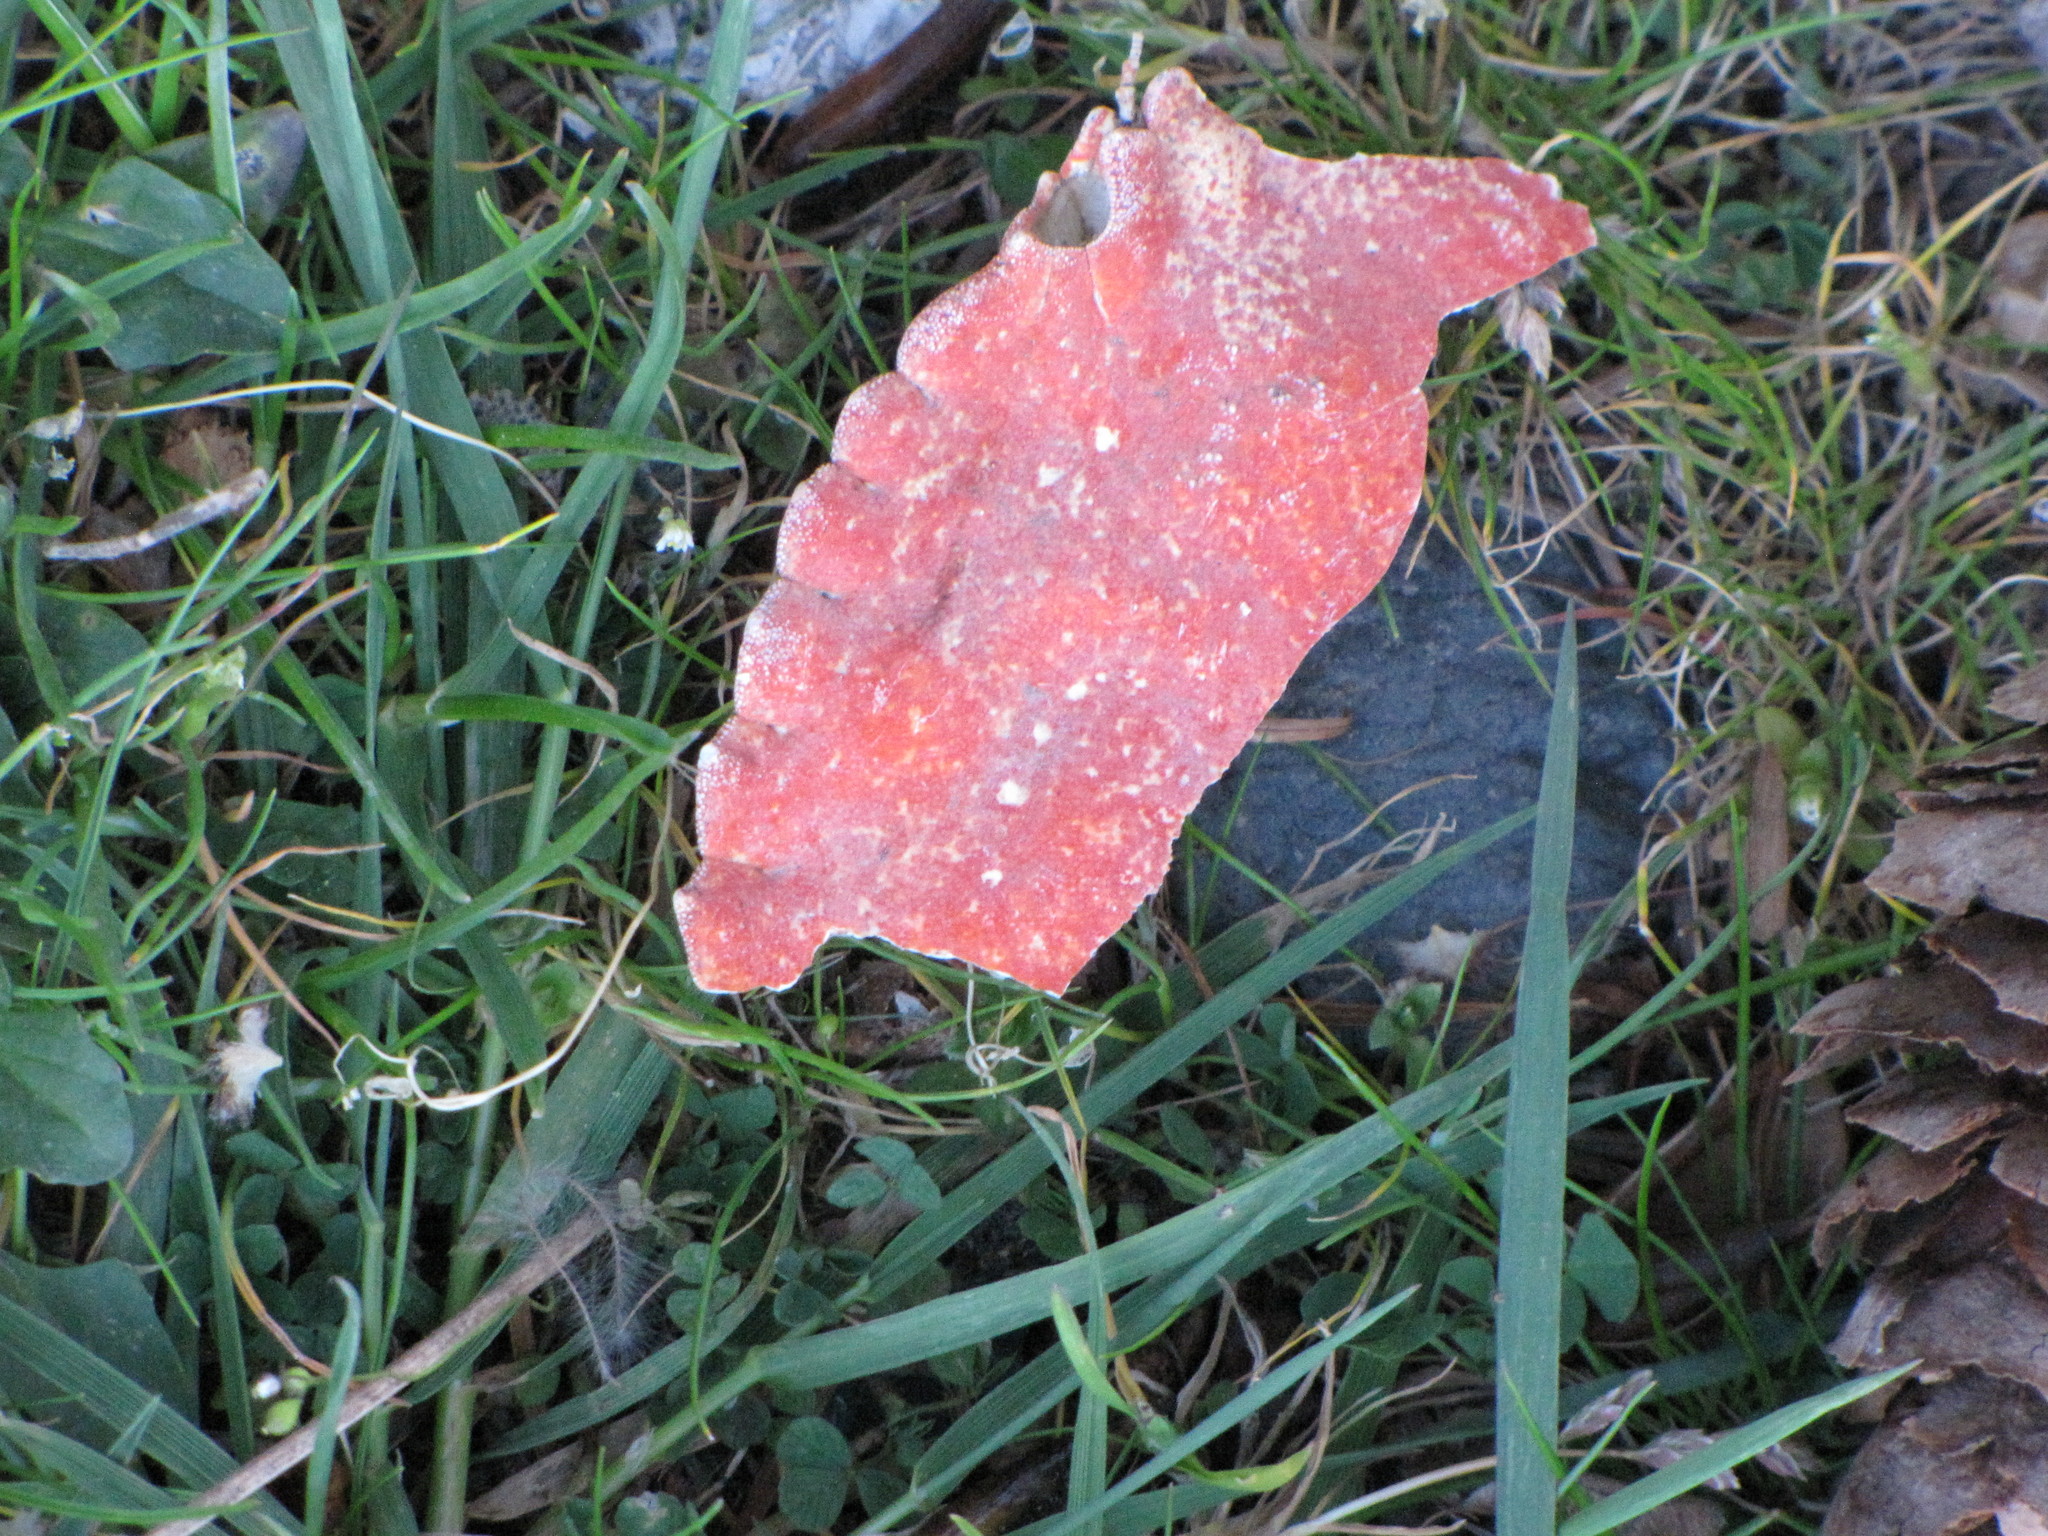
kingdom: Animalia
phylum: Arthropoda
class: Malacostraca
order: Decapoda
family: Cancridae
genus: Cancer
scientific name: Cancer productus
